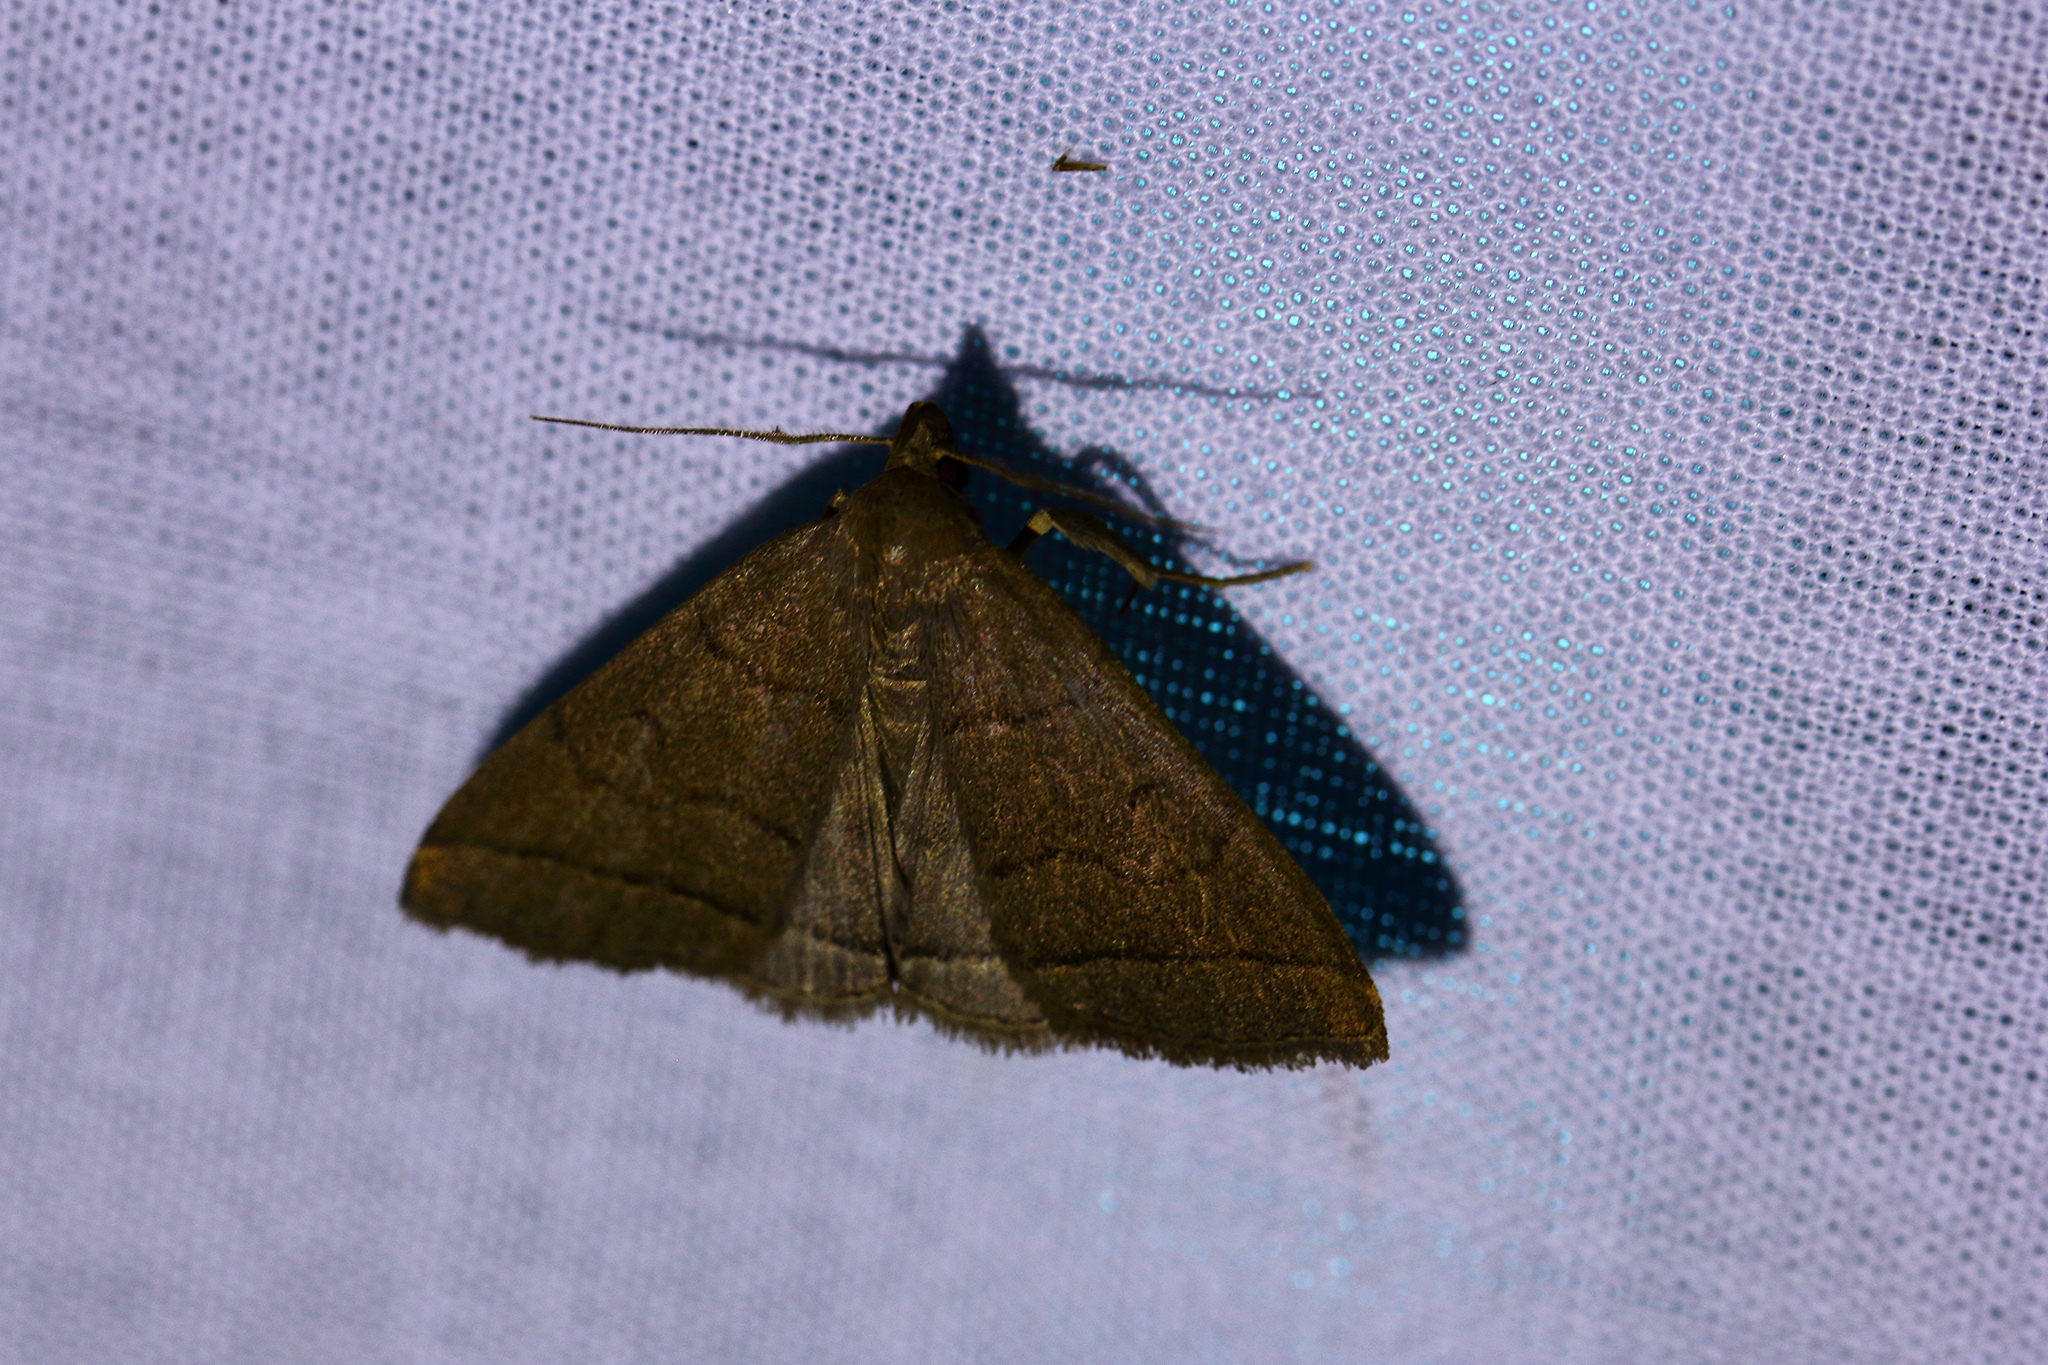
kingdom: Animalia
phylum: Arthropoda
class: Insecta
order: Lepidoptera
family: Erebidae
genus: Herminia
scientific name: Herminia tarsipennalis
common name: Fan-foot
